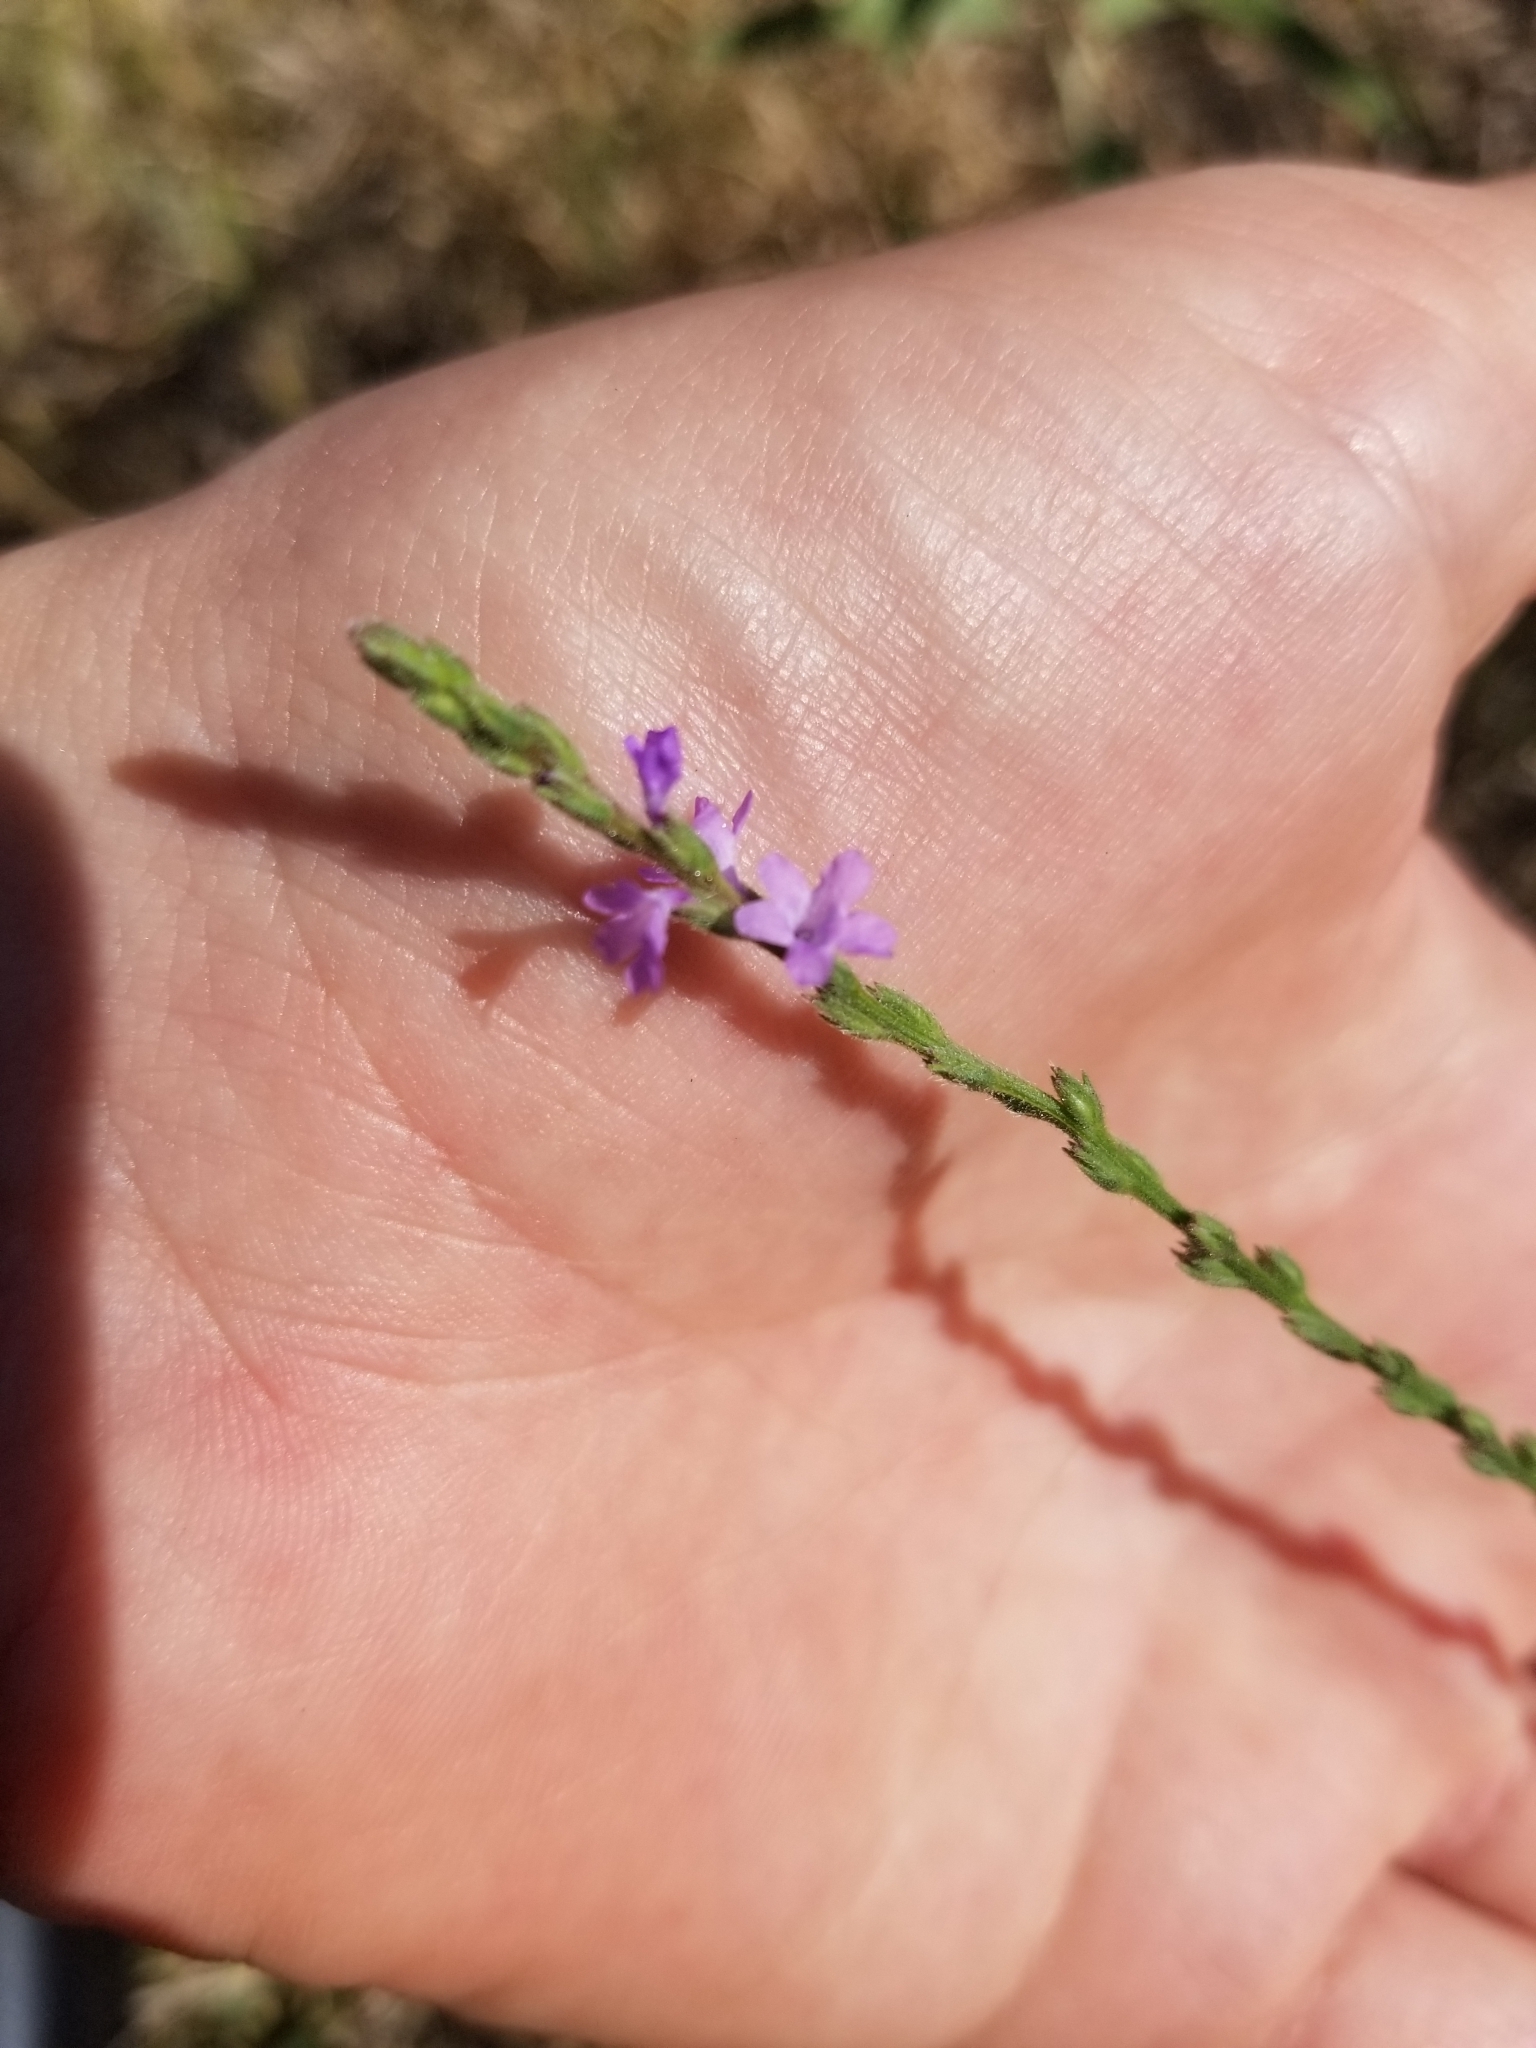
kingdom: Plantae
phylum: Tracheophyta
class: Magnoliopsida
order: Lamiales
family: Verbenaceae
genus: Verbena
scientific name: Verbena halei
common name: Texas vervain
